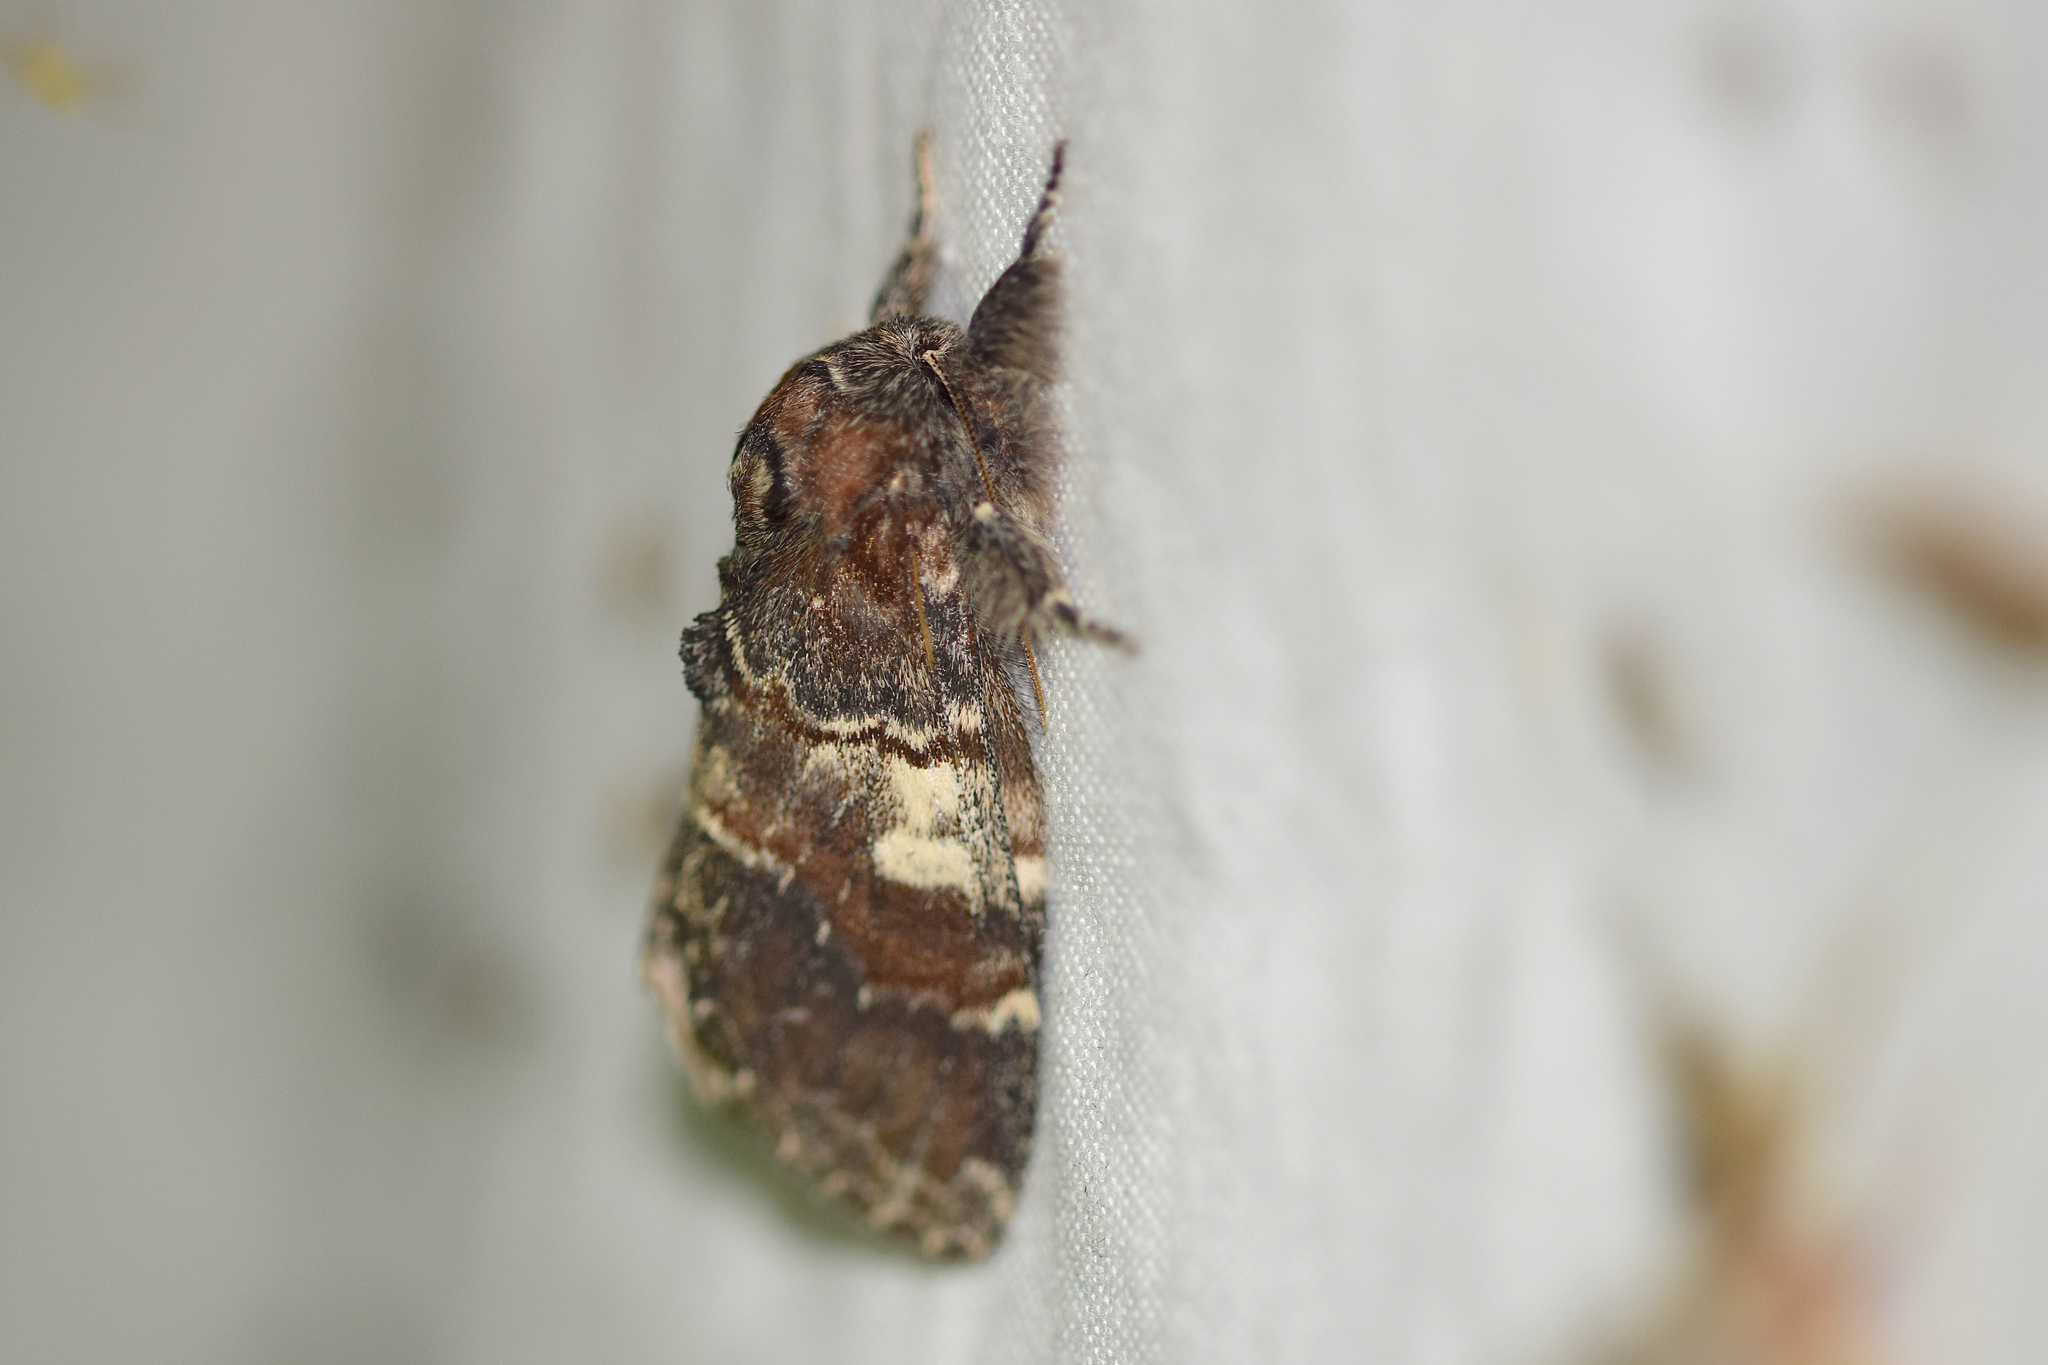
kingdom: Animalia
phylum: Arthropoda
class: Insecta
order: Lepidoptera
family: Notodontidae
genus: Peridea
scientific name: Peridea ferruginea
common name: Chocolate prominent
